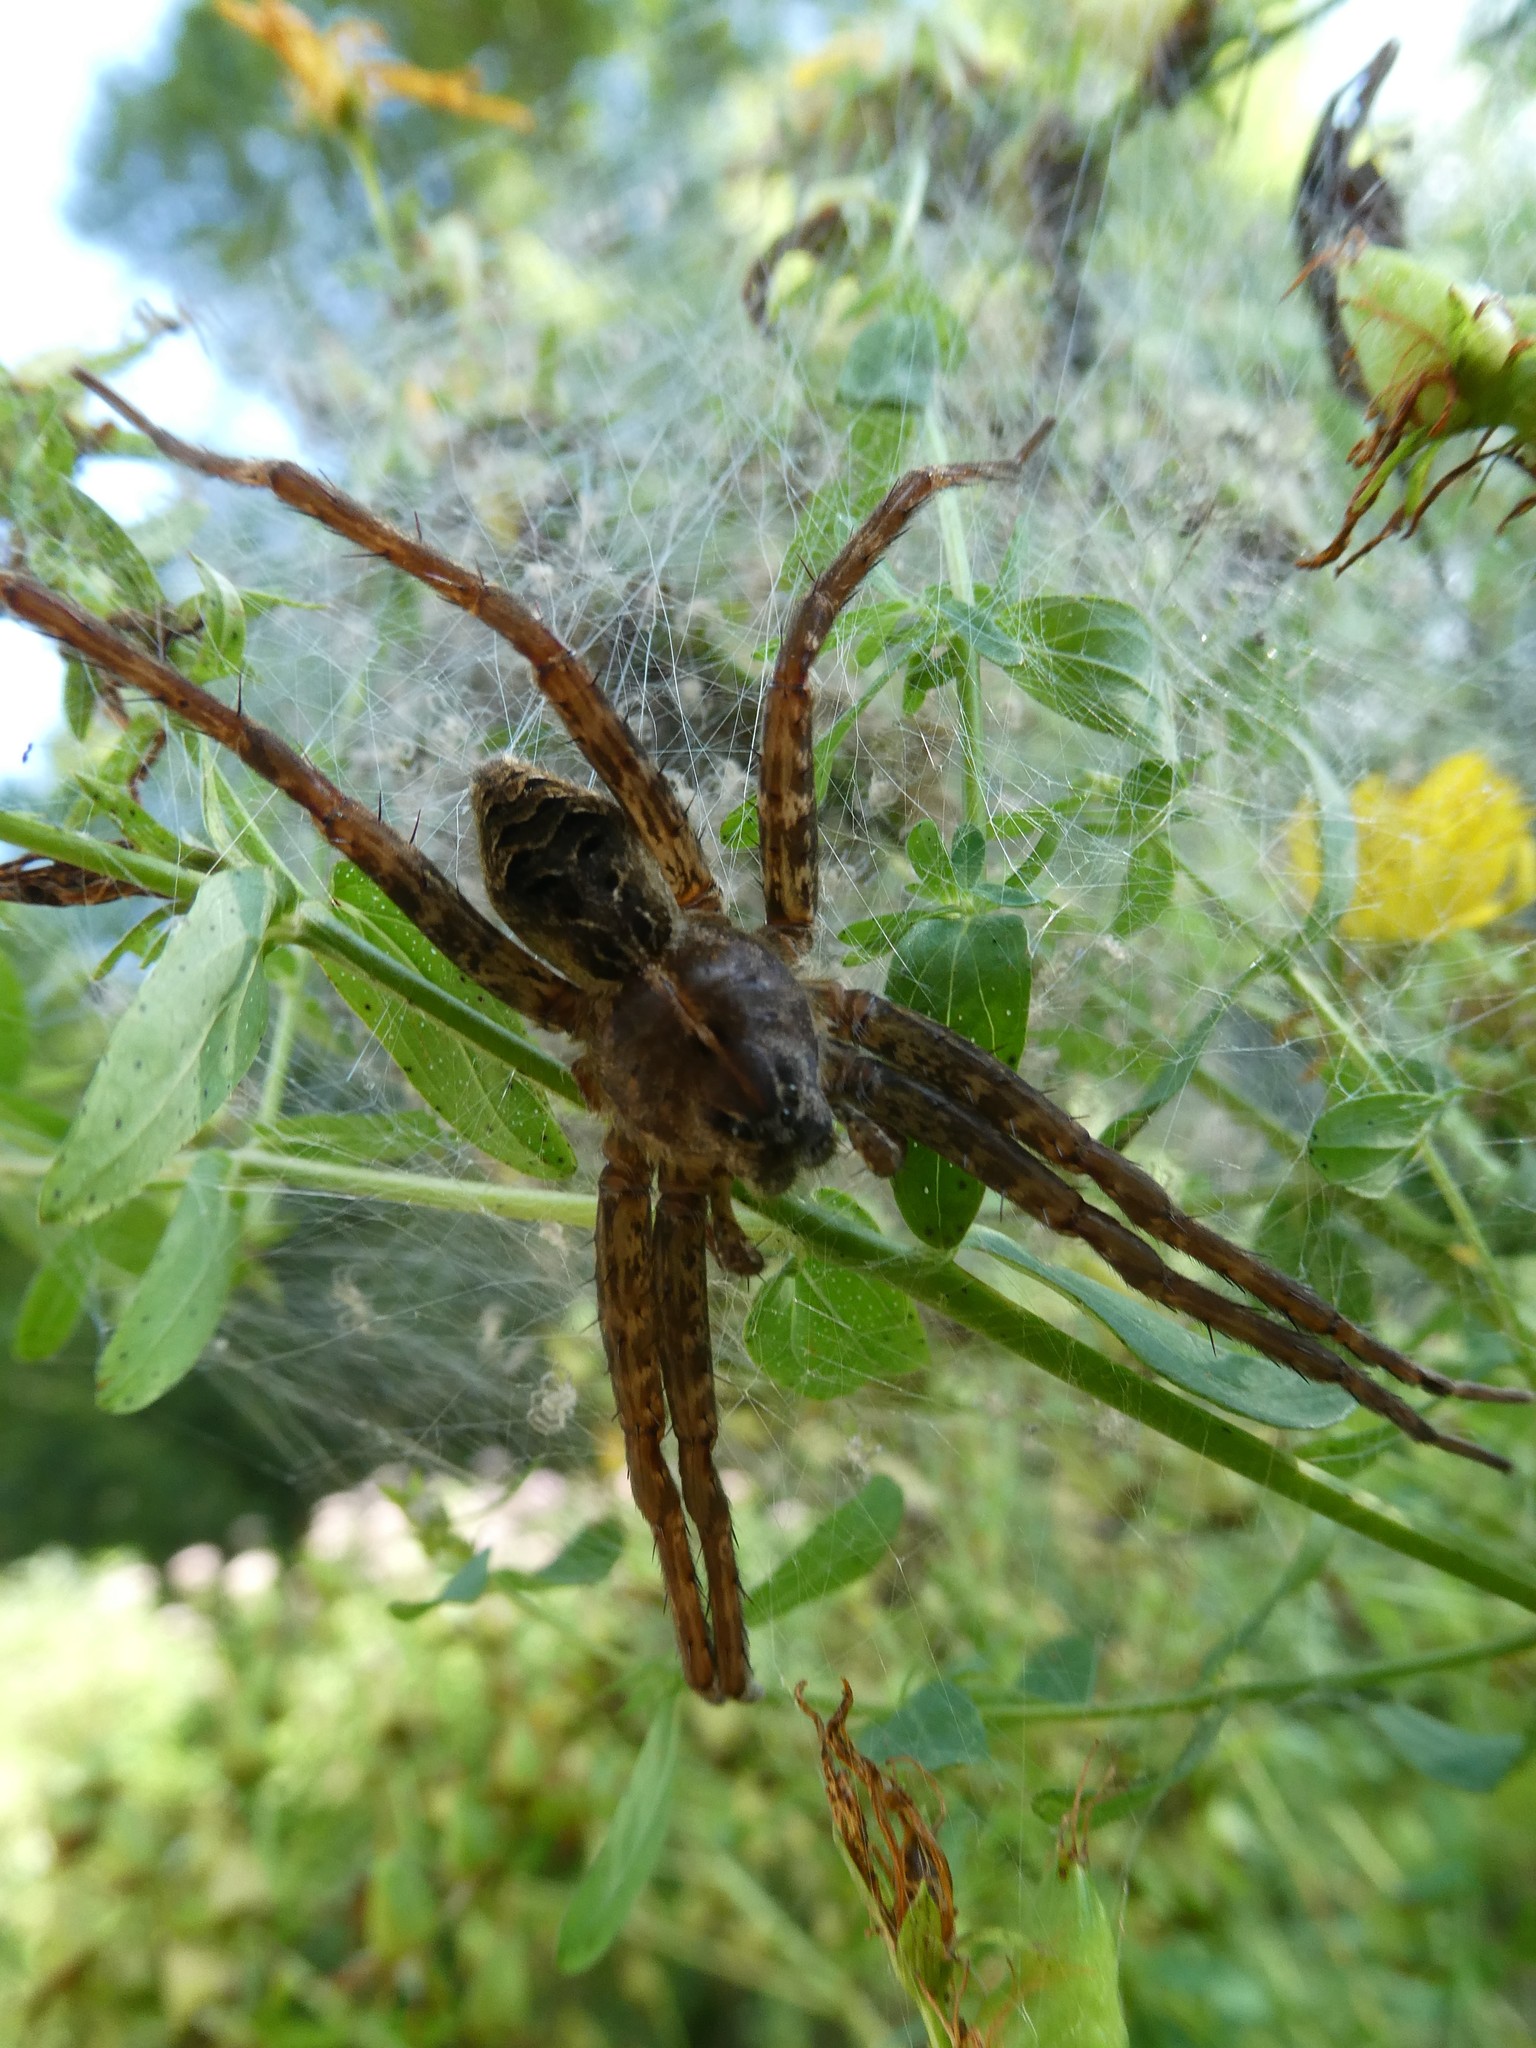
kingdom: Animalia
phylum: Arthropoda
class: Arachnida
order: Araneae
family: Pisauridae
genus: Dolomedes
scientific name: Dolomedes scriptus
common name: Striped fishing spider
